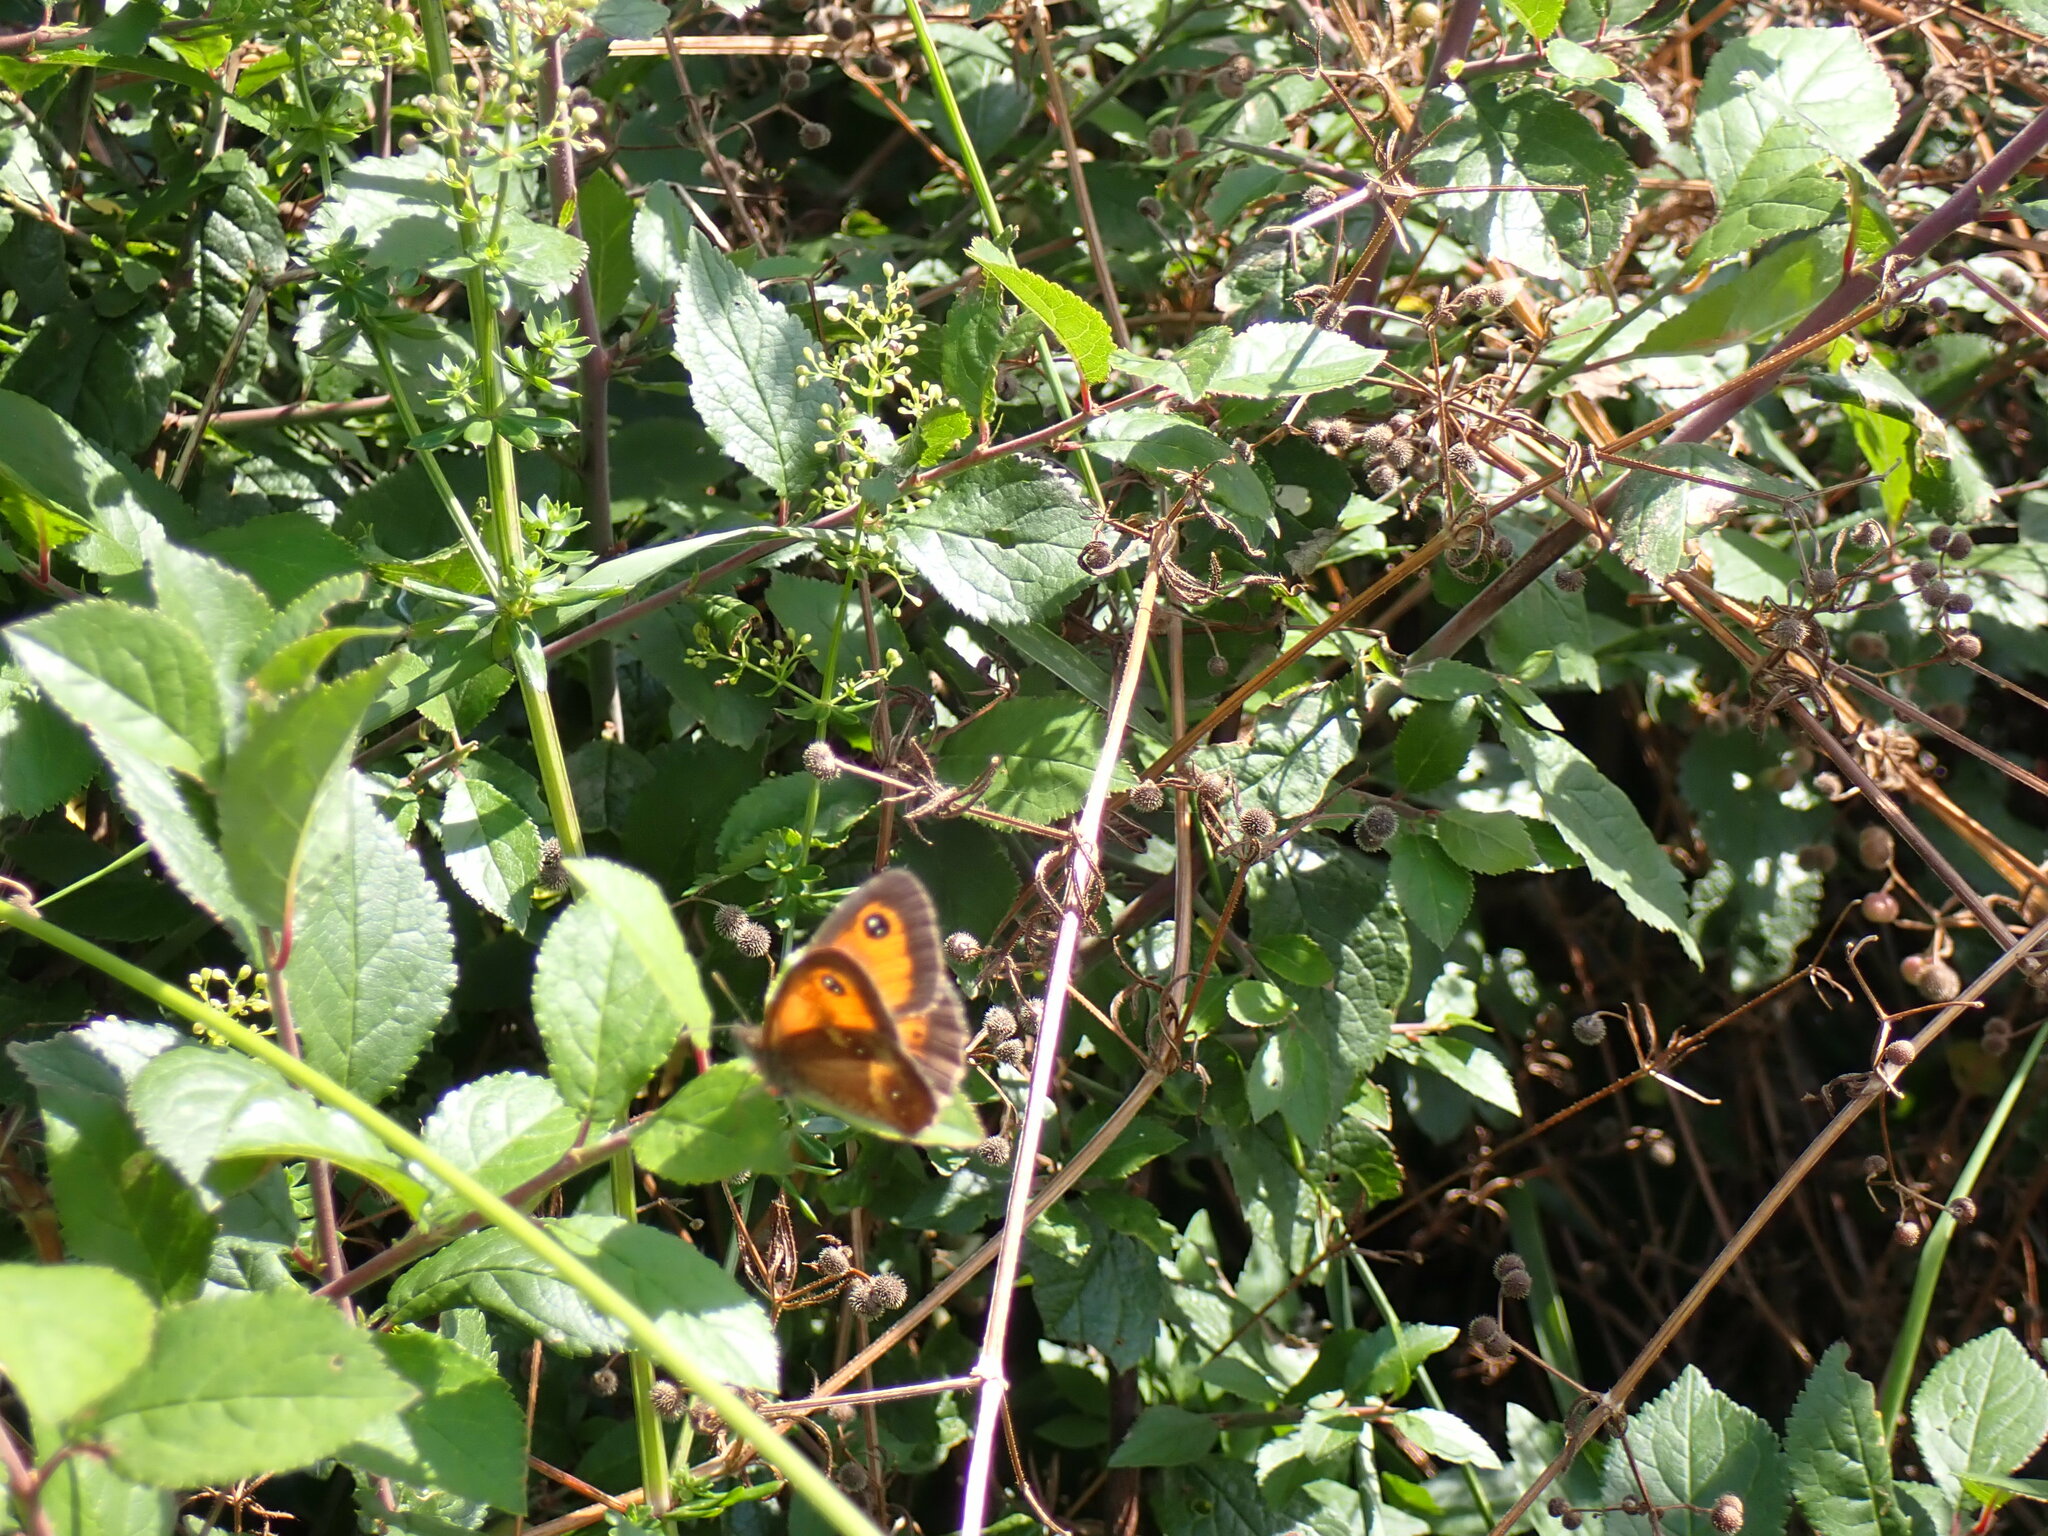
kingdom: Animalia
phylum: Arthropoda
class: Insecta
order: Lepidoptera
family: Nymphalidae
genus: Pyronia
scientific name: Pyronia tithonus
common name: Gatekeeper
